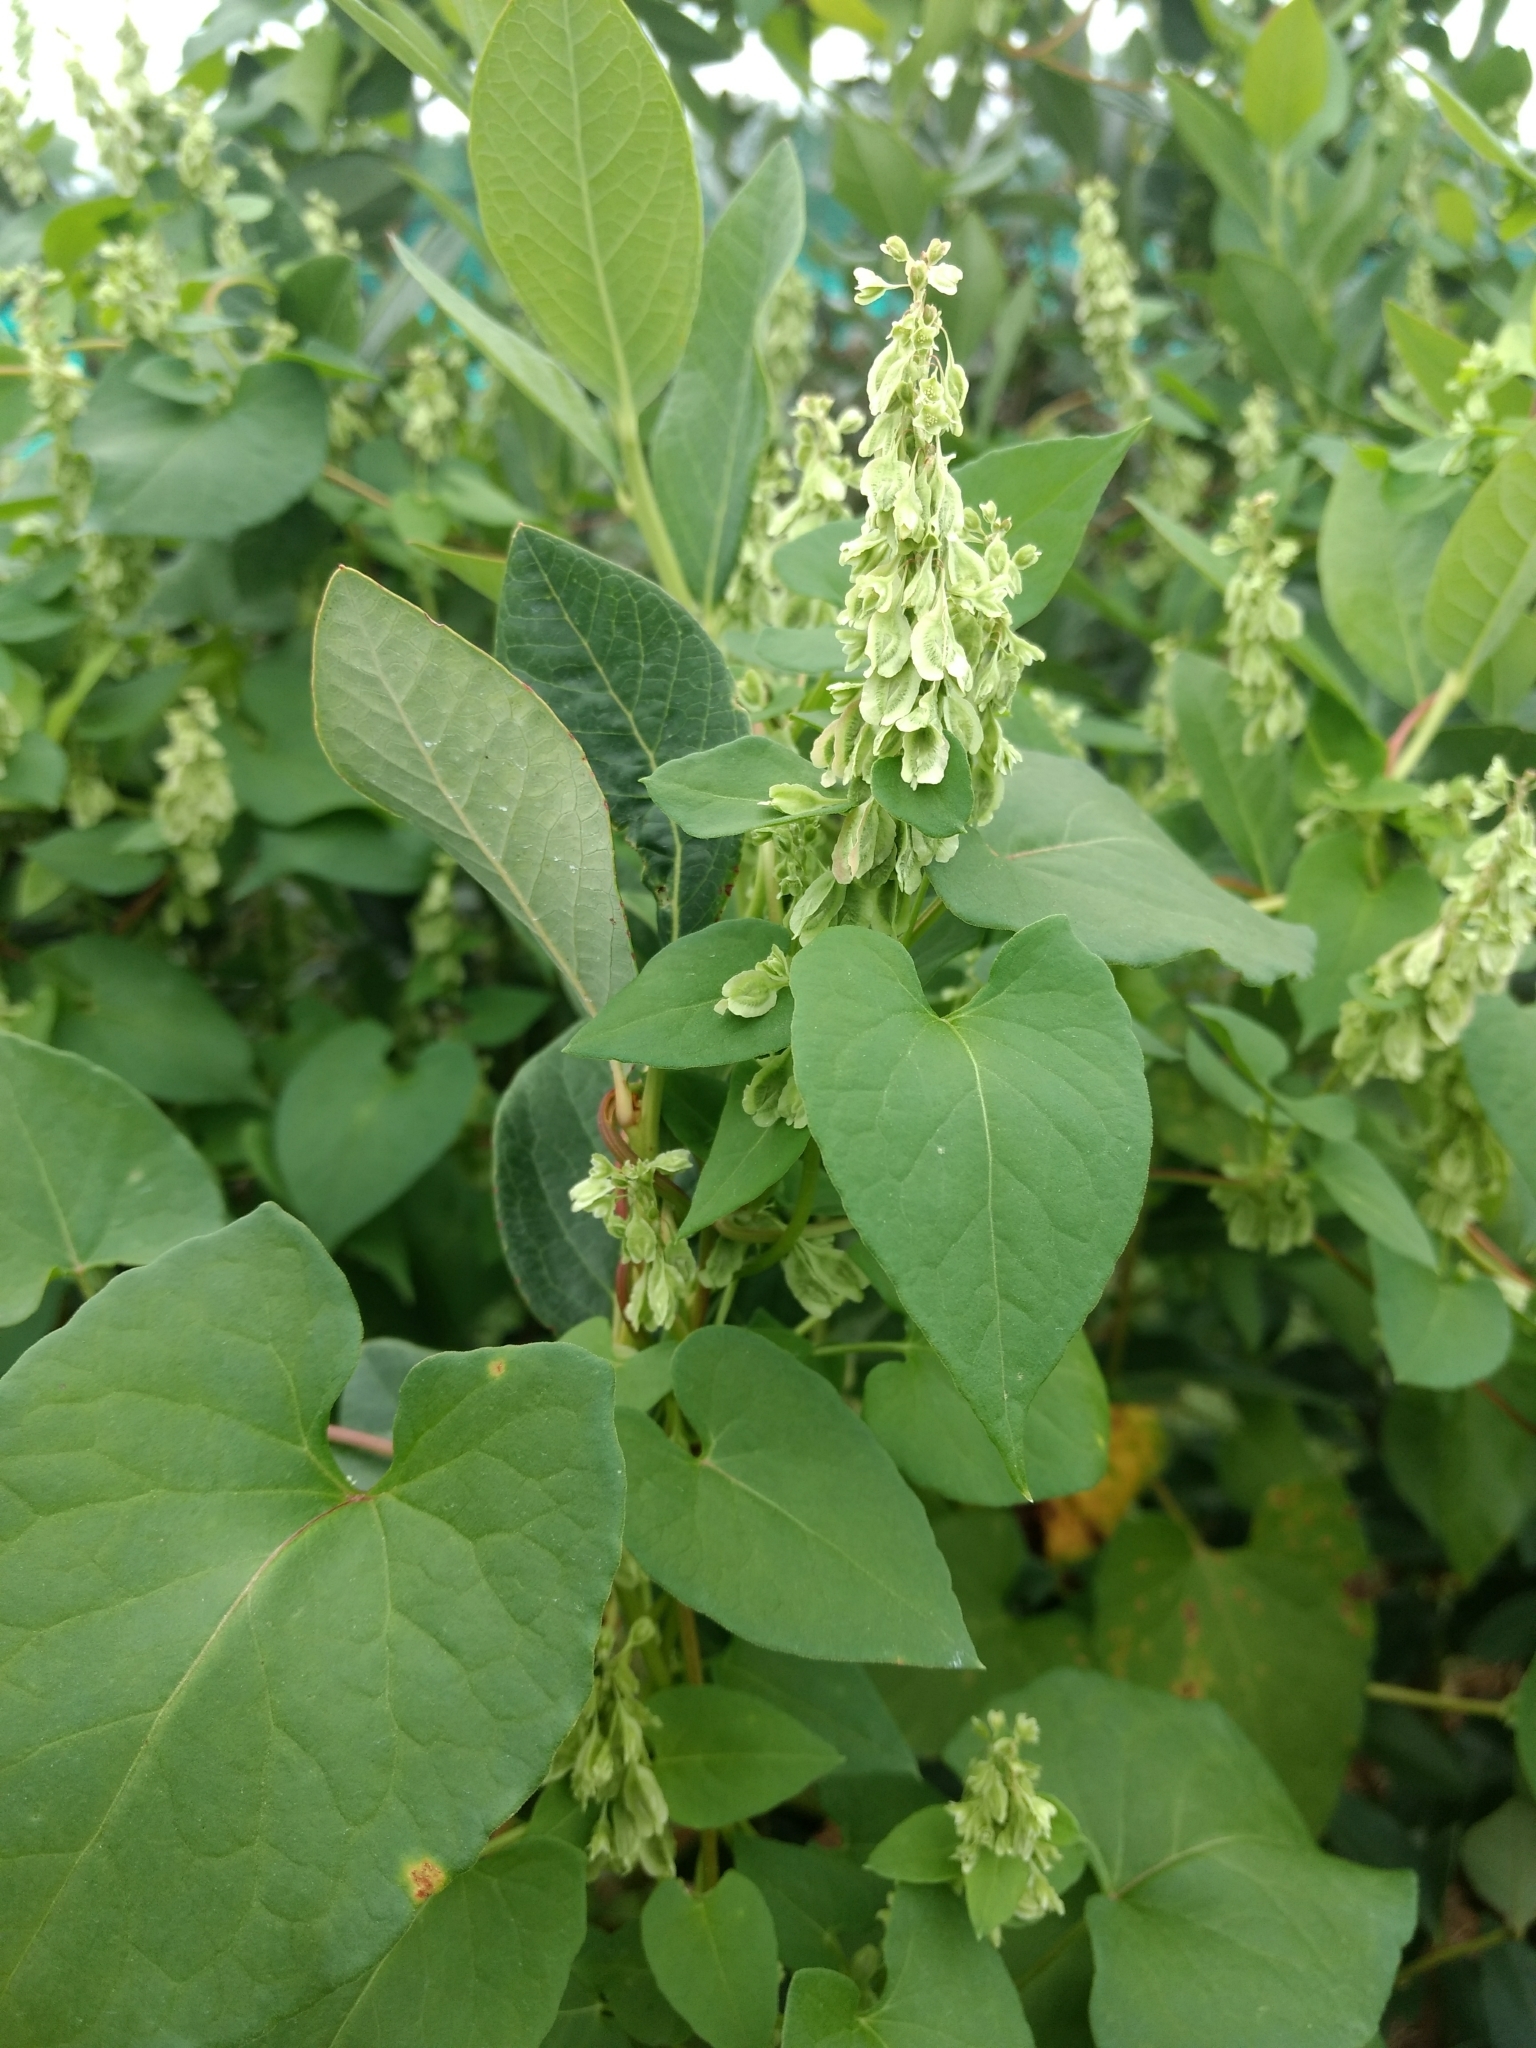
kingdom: Plantae
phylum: Tracheophyta
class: Magnoliopsida
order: Caryophyllales
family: Polygonaceae
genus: Fallopia
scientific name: Fallopia scandens
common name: Climbing false buckwheat
